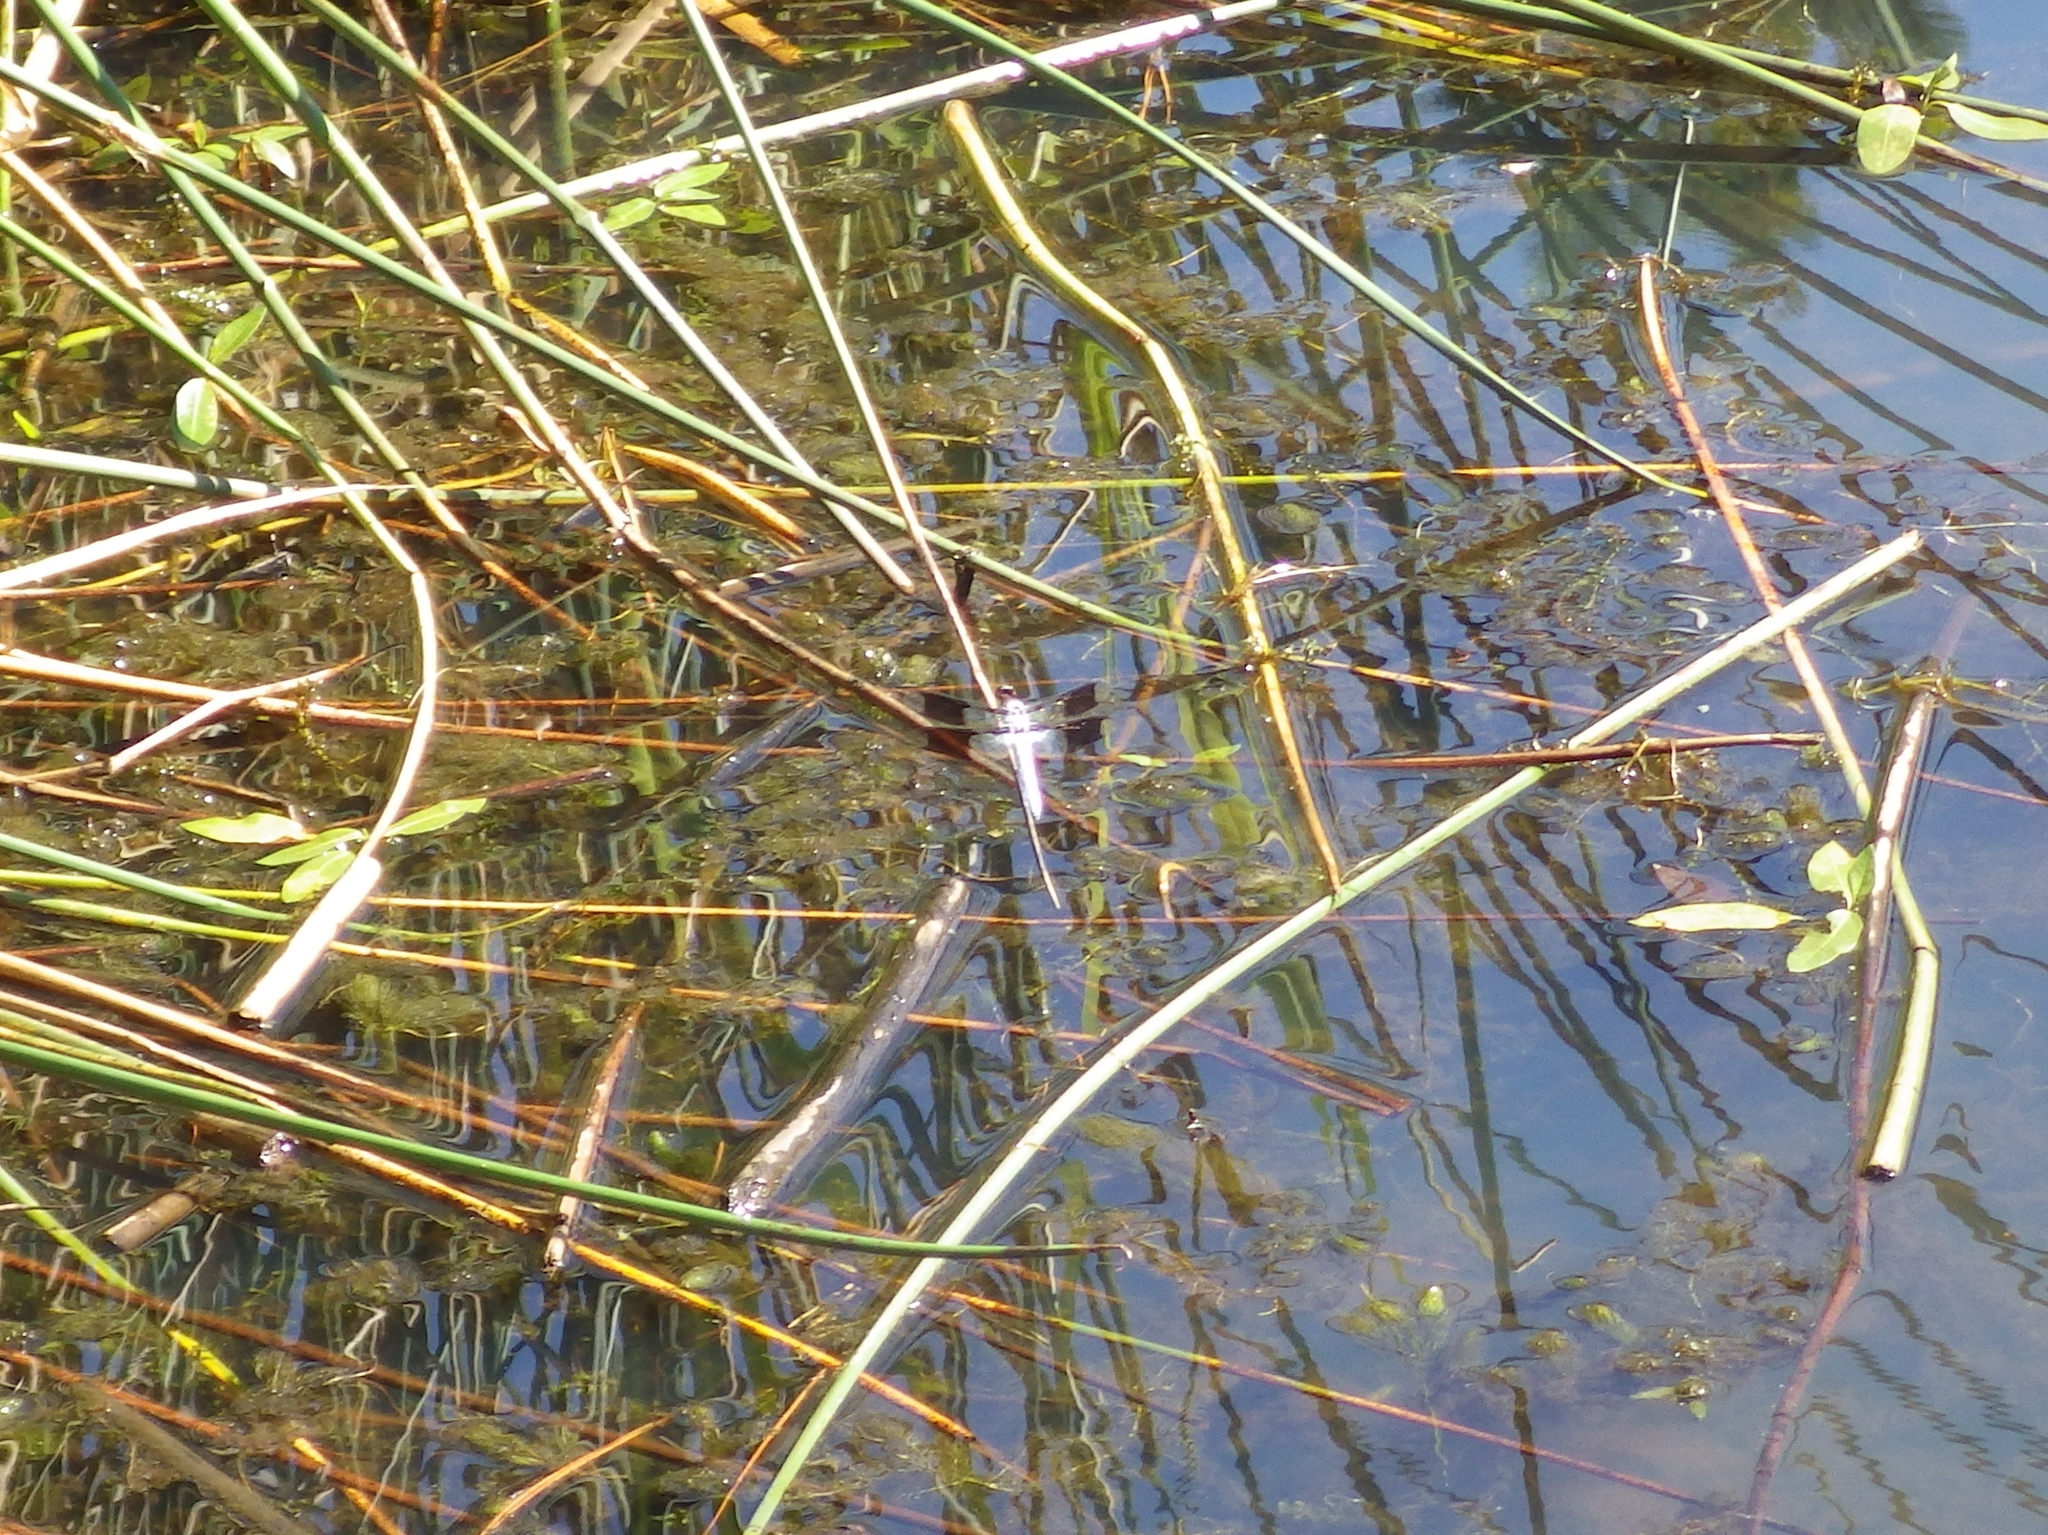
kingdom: Animalia
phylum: Arthropoda
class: Insecta
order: Odonata
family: Libellulidae
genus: Plathemis
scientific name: Plathemis lydia
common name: Common whitetail
